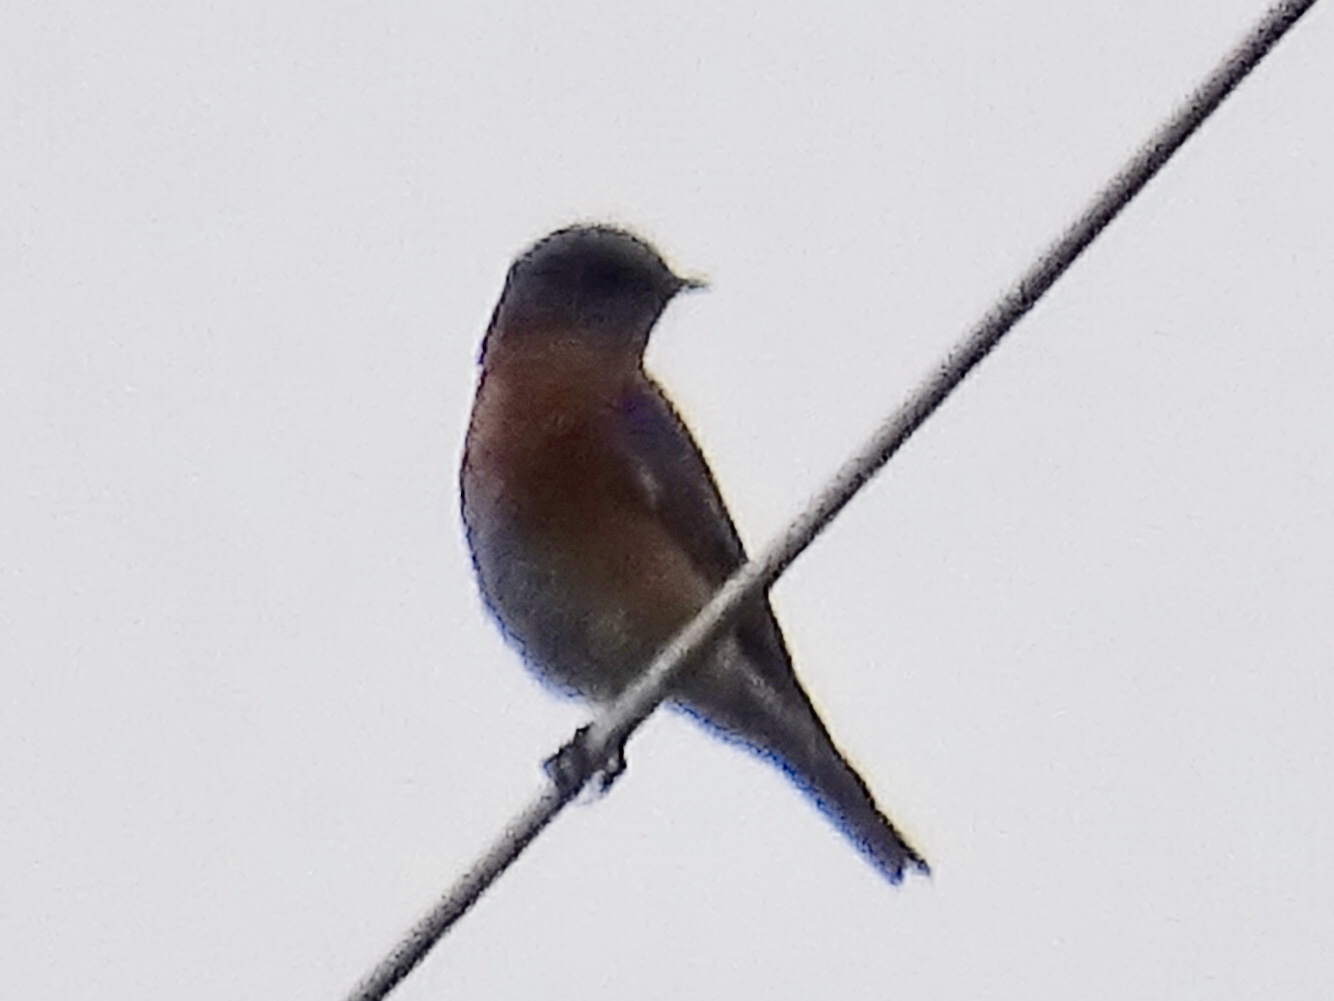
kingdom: Animalia
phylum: Chordata
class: Aves
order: Passeriformes
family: Turdidae
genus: Sialia
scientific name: Sialia mexicana
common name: Western bluebird
